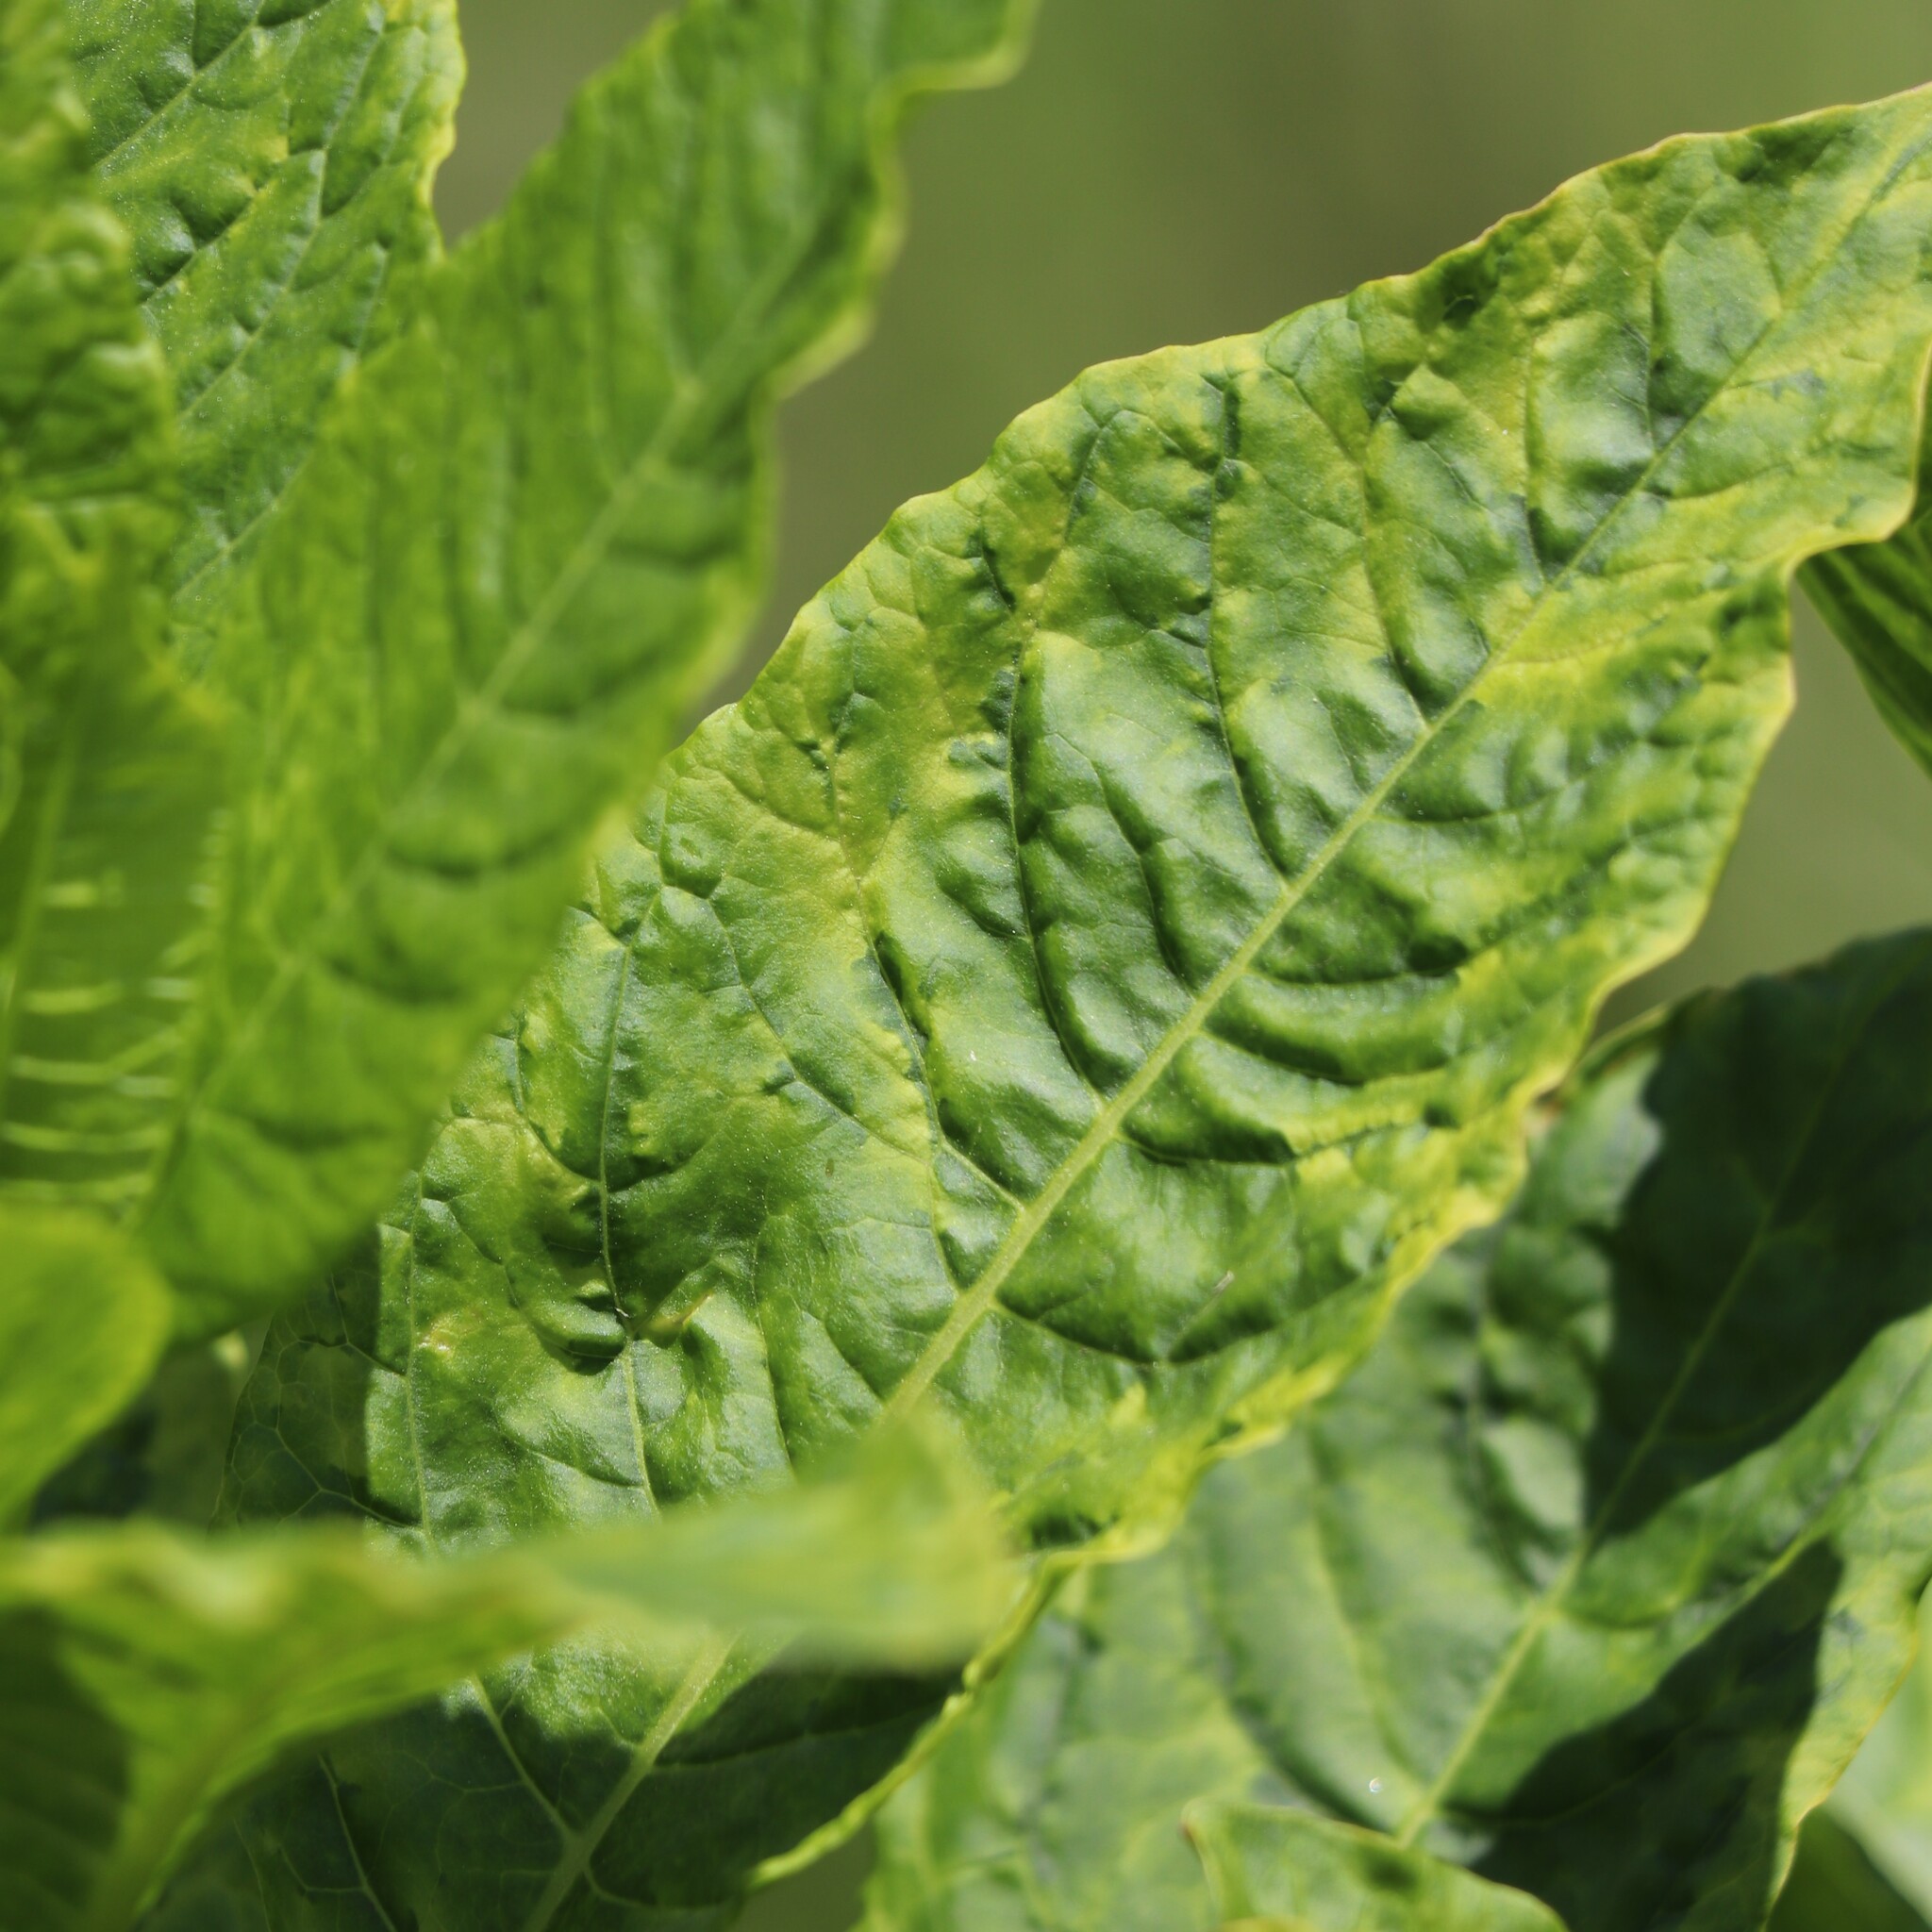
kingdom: Viruses
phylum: Pisuviricota
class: Stelpaviricetes
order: Patatavirales
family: Potyviridae
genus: Potyvirus
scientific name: Potyvirus Pokeweed mosaic virus
